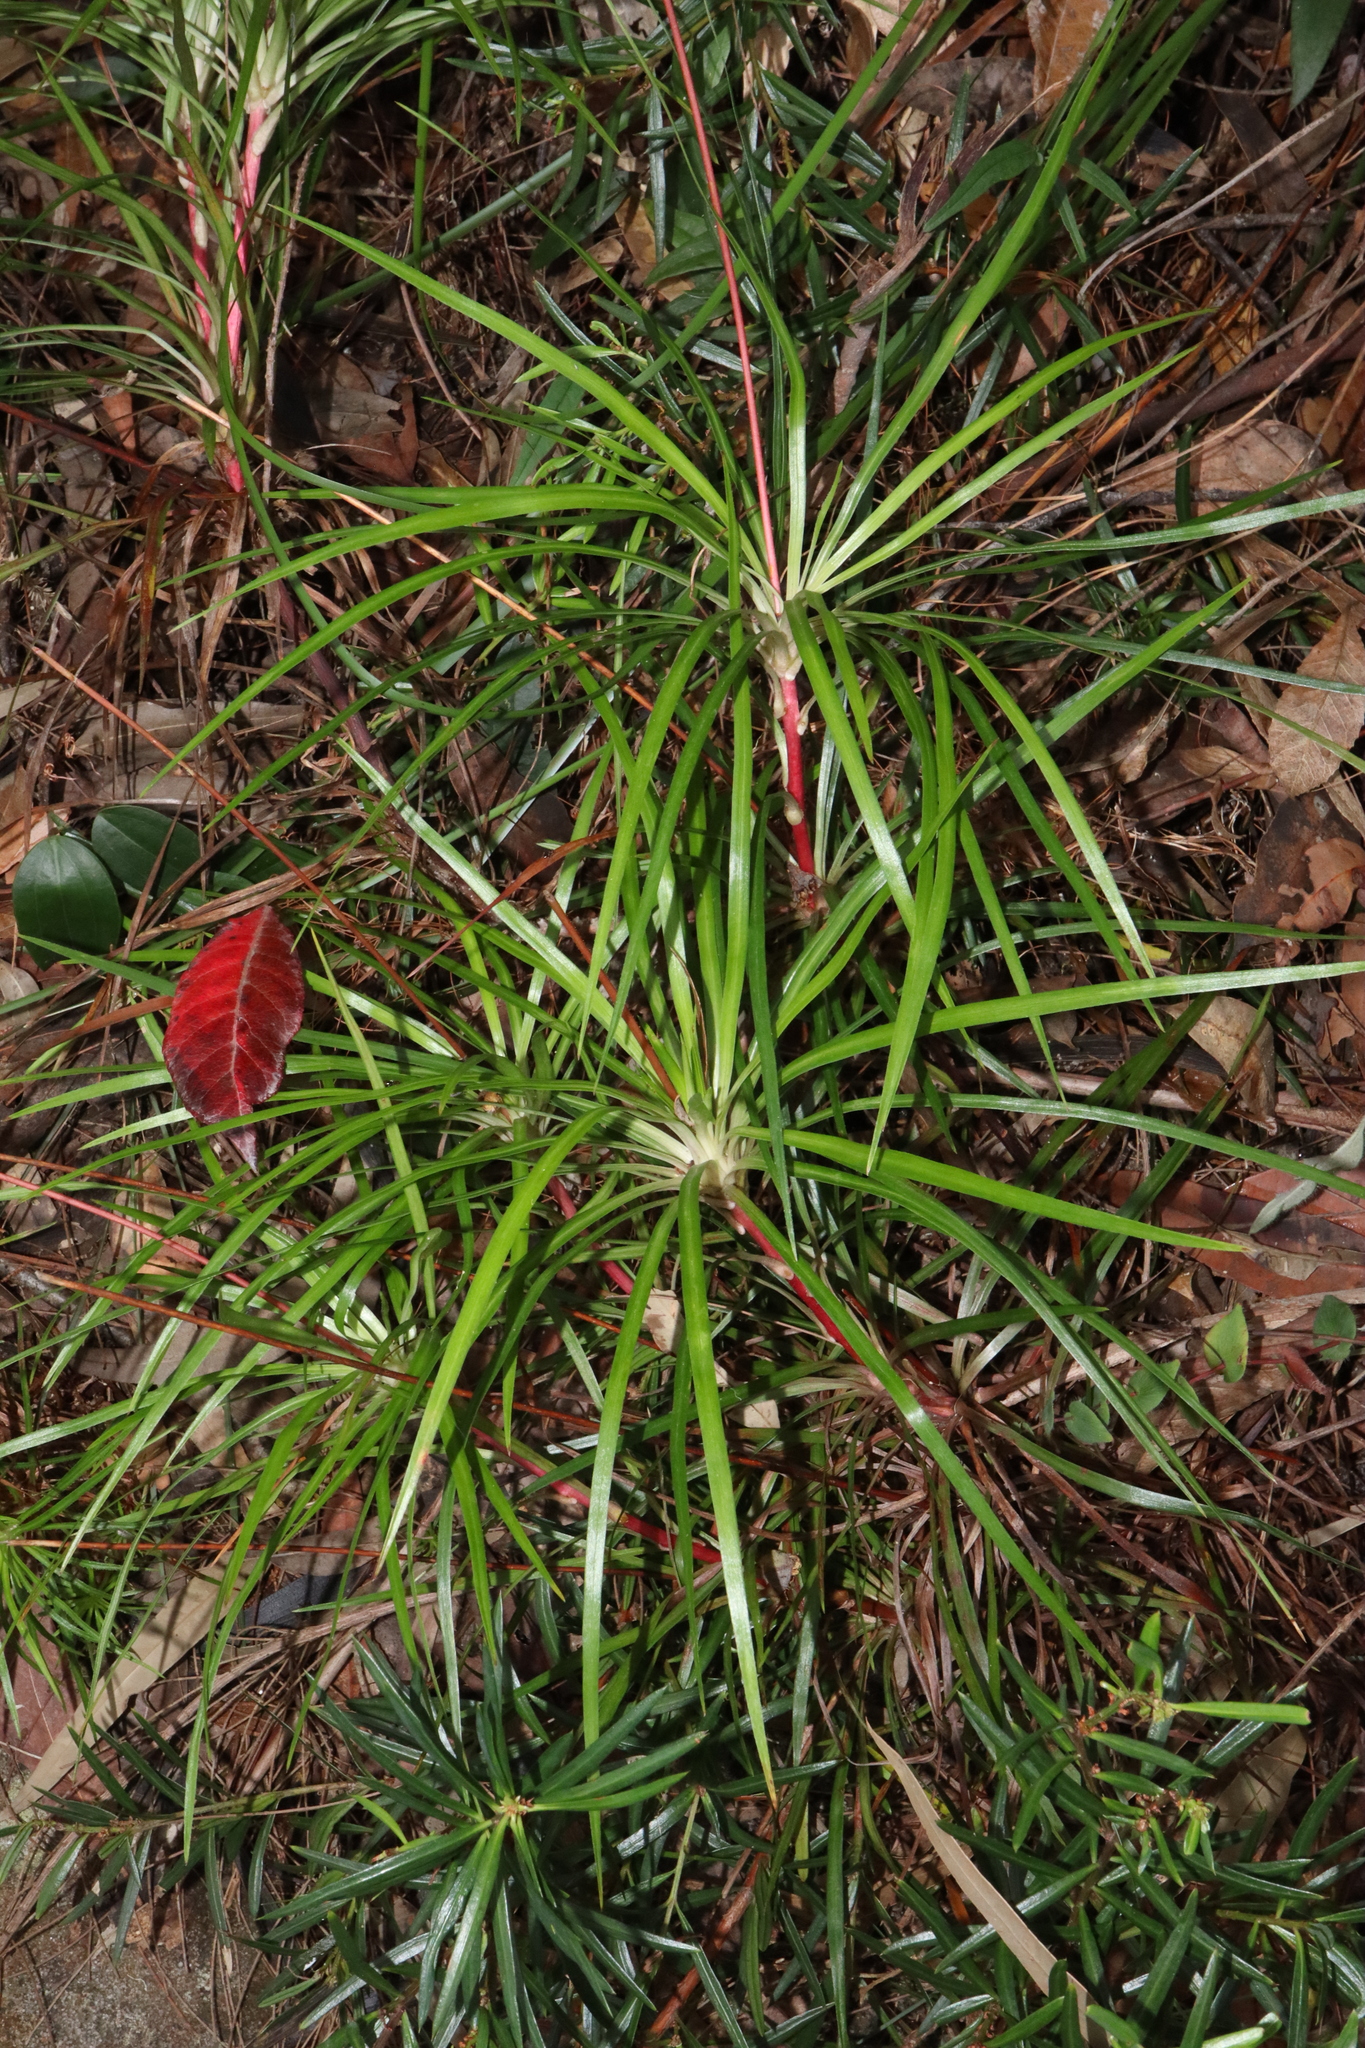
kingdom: Plantae
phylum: Tracheophyta
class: Magnoliopsida
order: Asterales
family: Stylidiaceae
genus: Stylidium
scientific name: Stylidium productum
